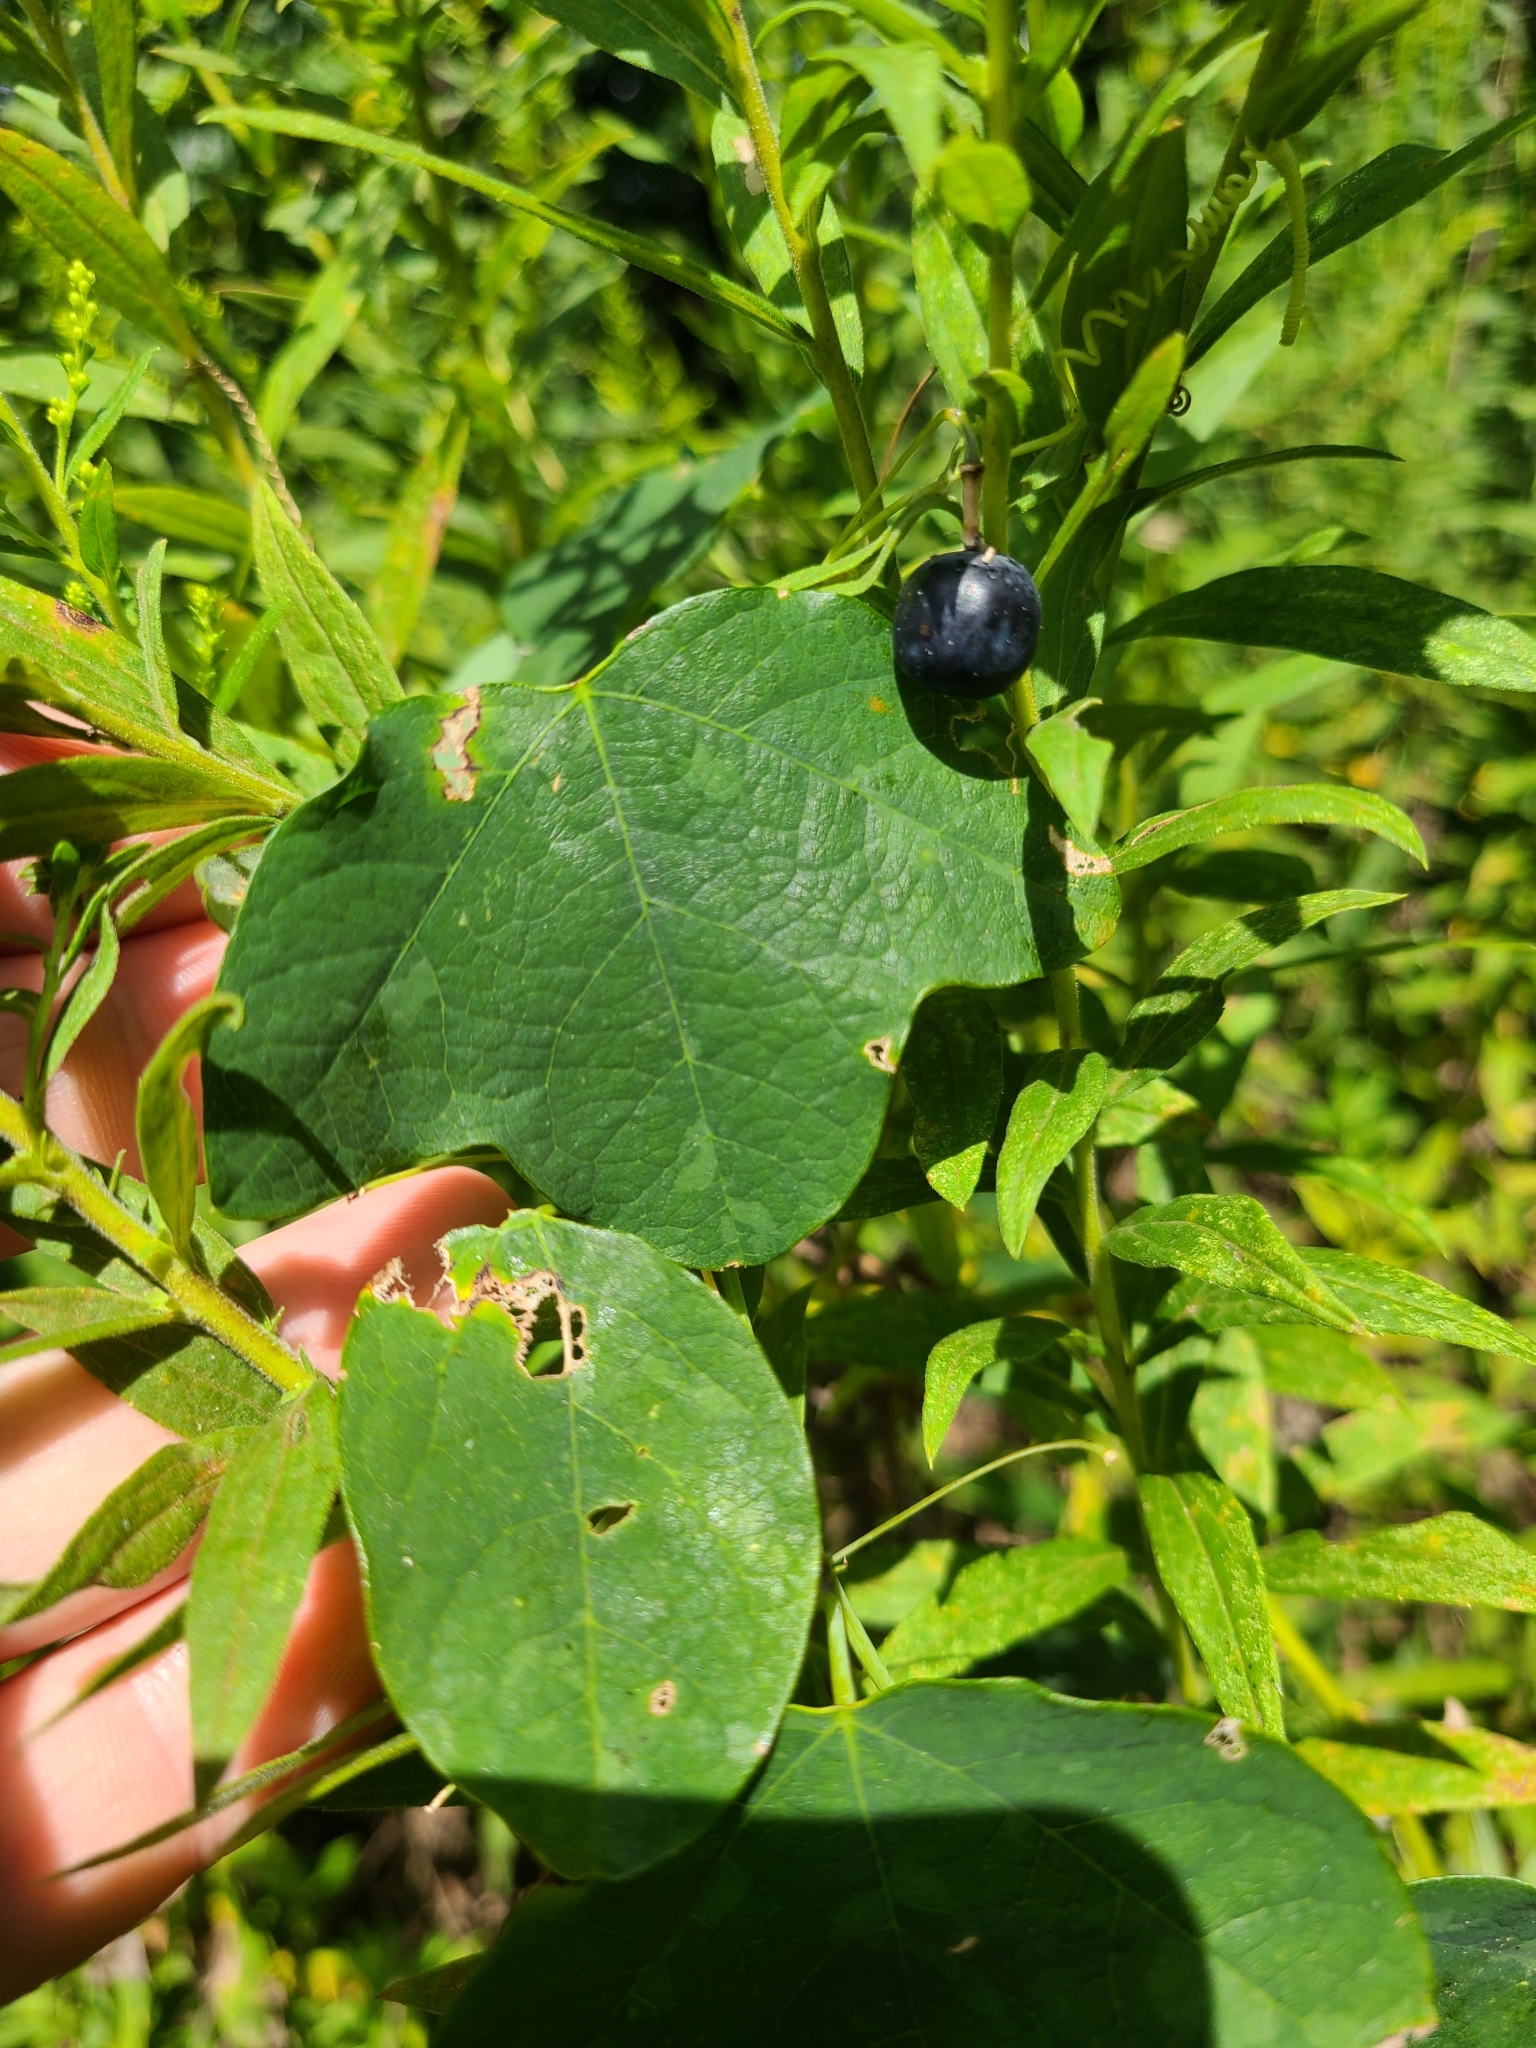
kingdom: Plantae
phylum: Tracheophyta
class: Magnoliopsida
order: Malpighiales
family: Passifloraceae
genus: Passiflora
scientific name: Passiflora lutea
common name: Yellow passionflower
